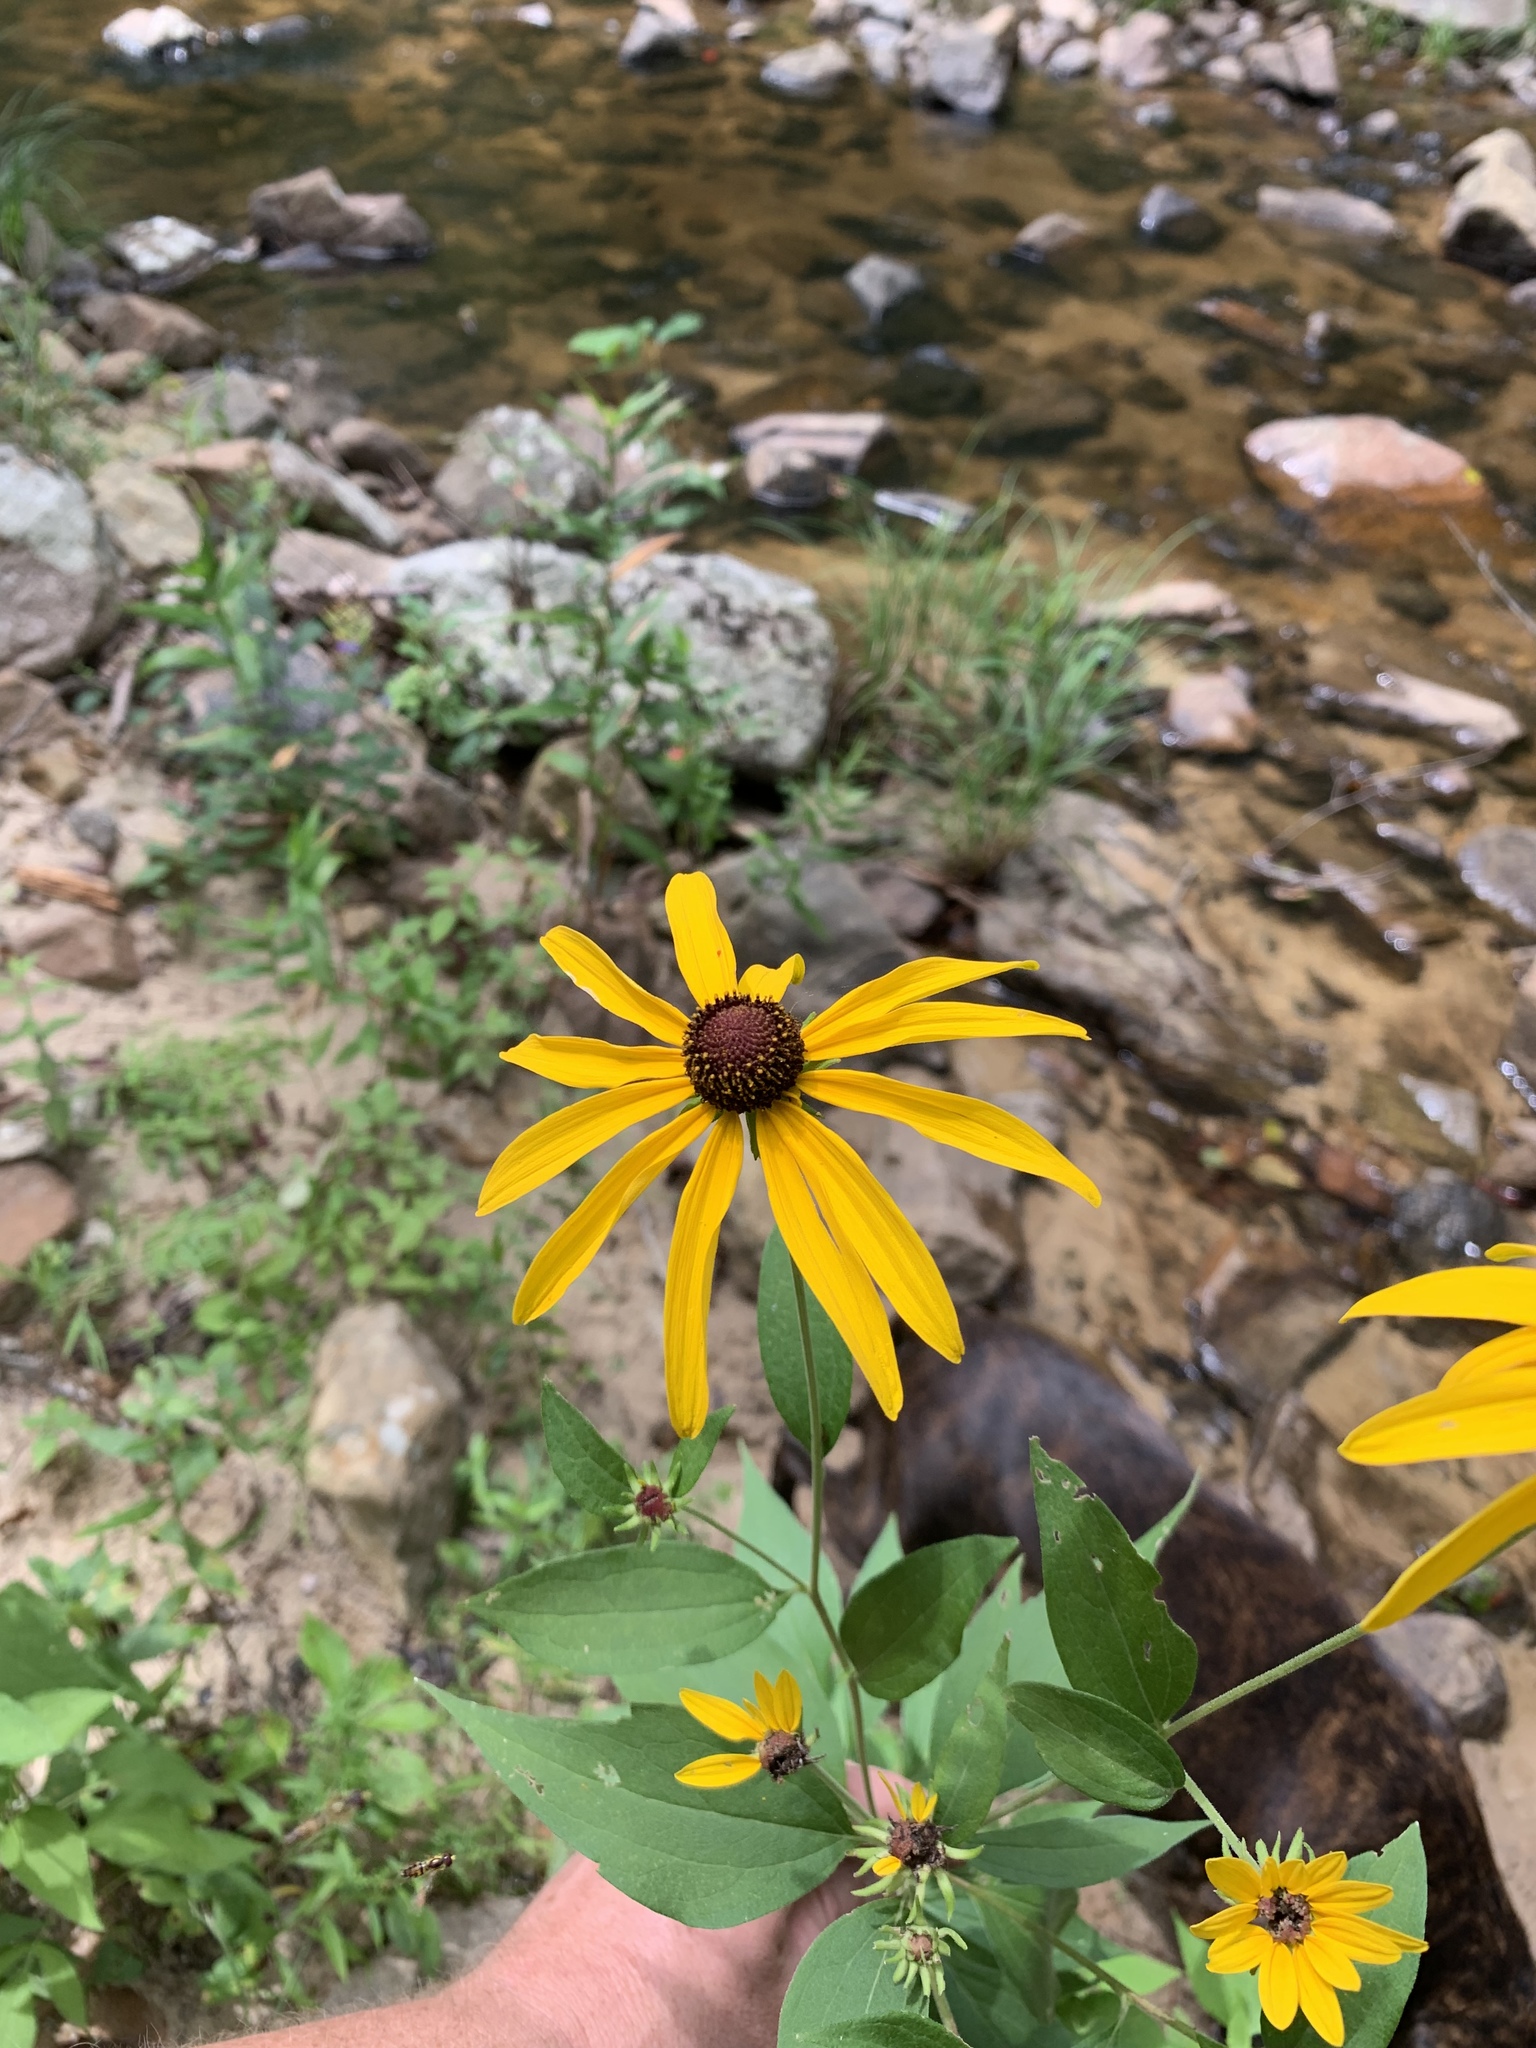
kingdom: Plantae
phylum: Tracheophyta
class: Magnoliopsida
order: Asterales
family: Asteraceae
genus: Rudbeckia
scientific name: Rudbeckia hirta
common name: Black-eyed-susan
